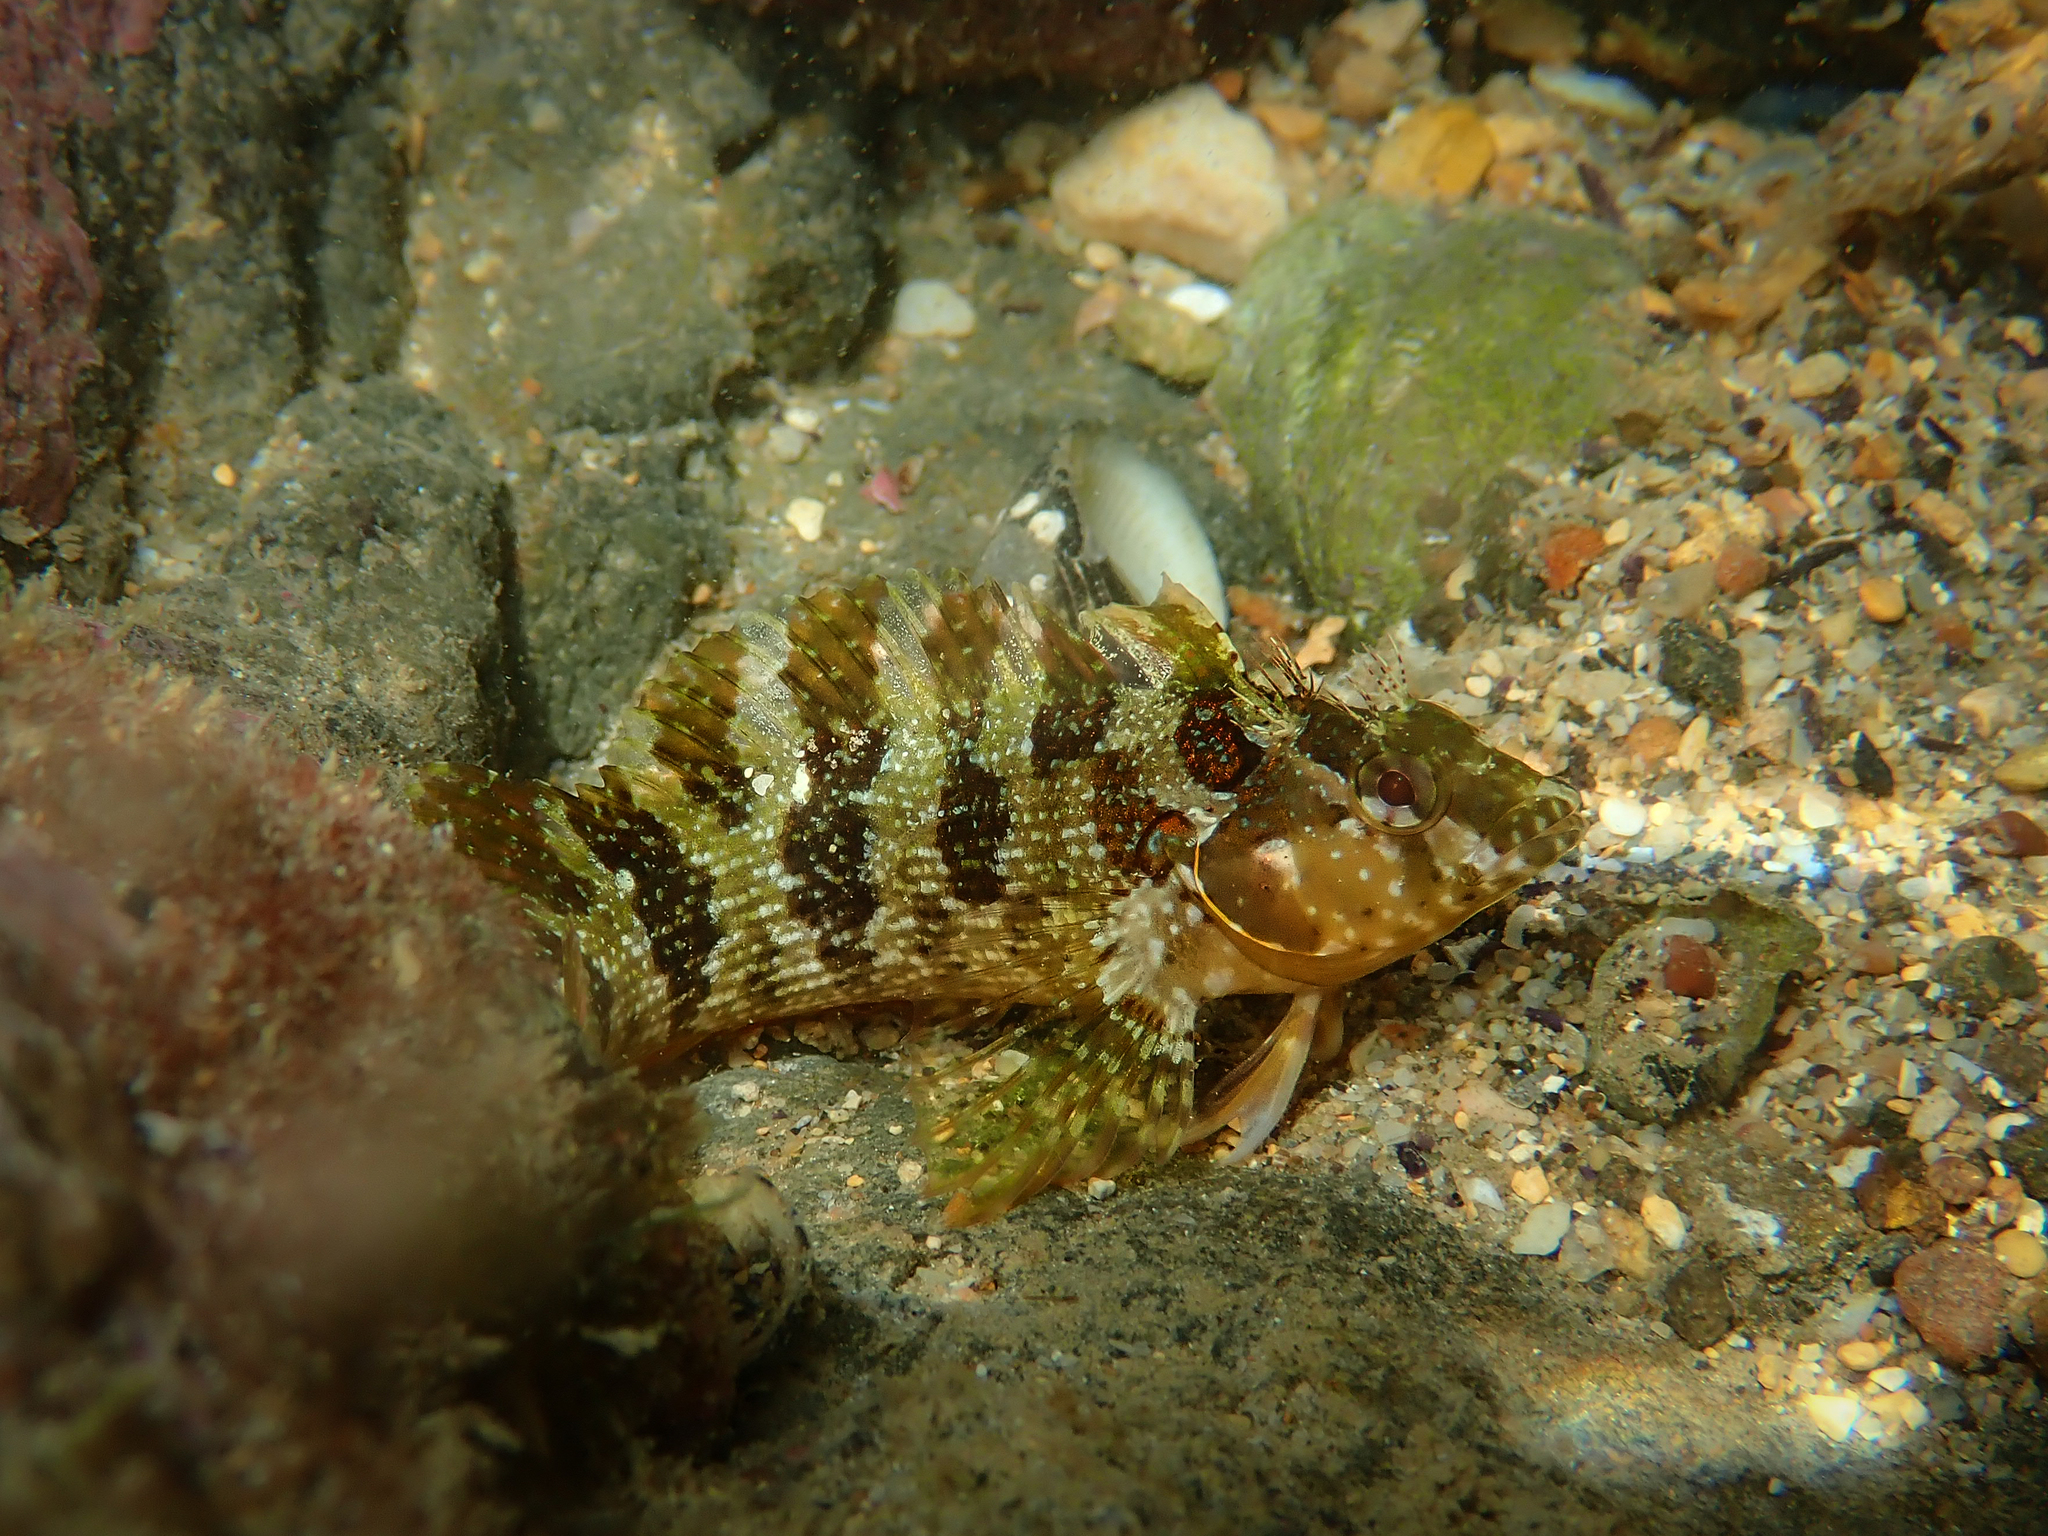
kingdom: Animalia
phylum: Chordata
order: Perciformes
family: Labrisomidae
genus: Malacoctenus
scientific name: Malacoctenus africanus
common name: Senegal blenny
